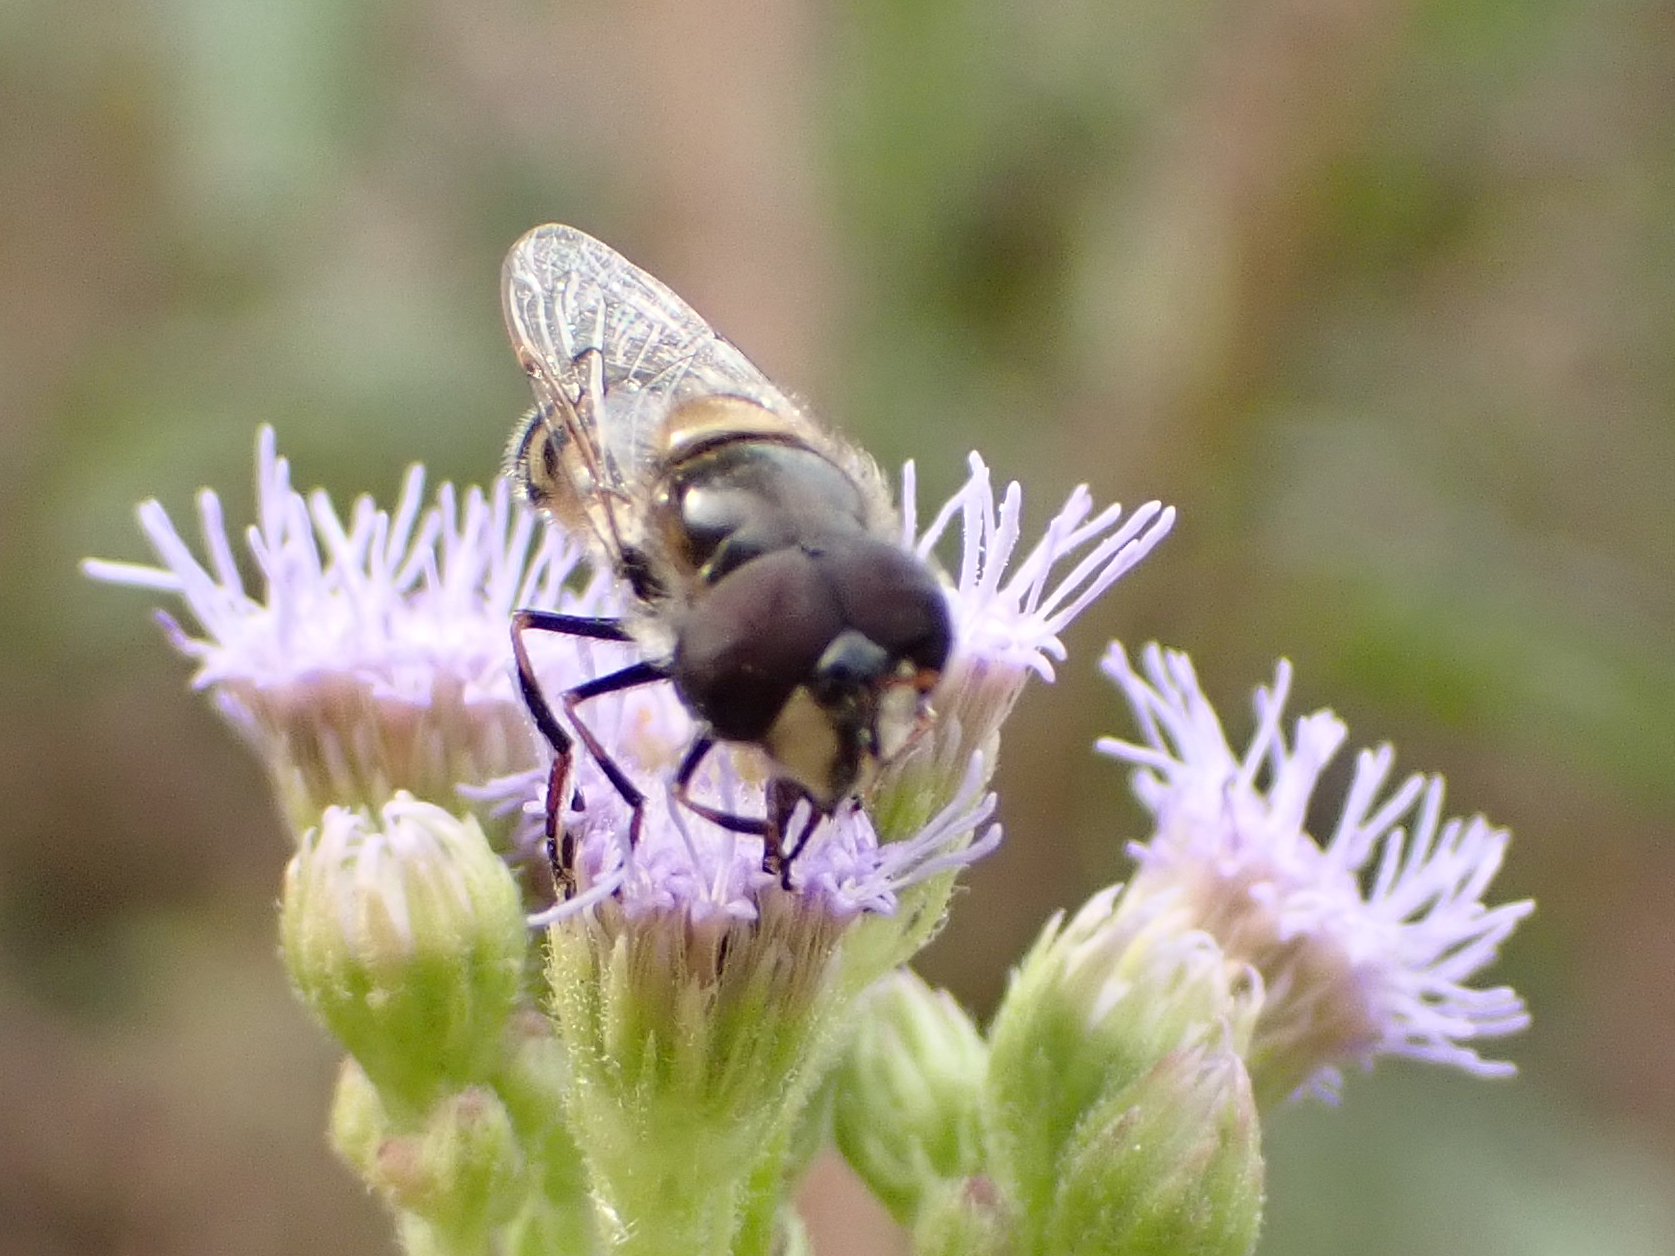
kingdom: Animalia
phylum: Arthropoda
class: Insecta
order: Diptera
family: Syrphidae
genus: Copestylum
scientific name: Copestylum marginatum
